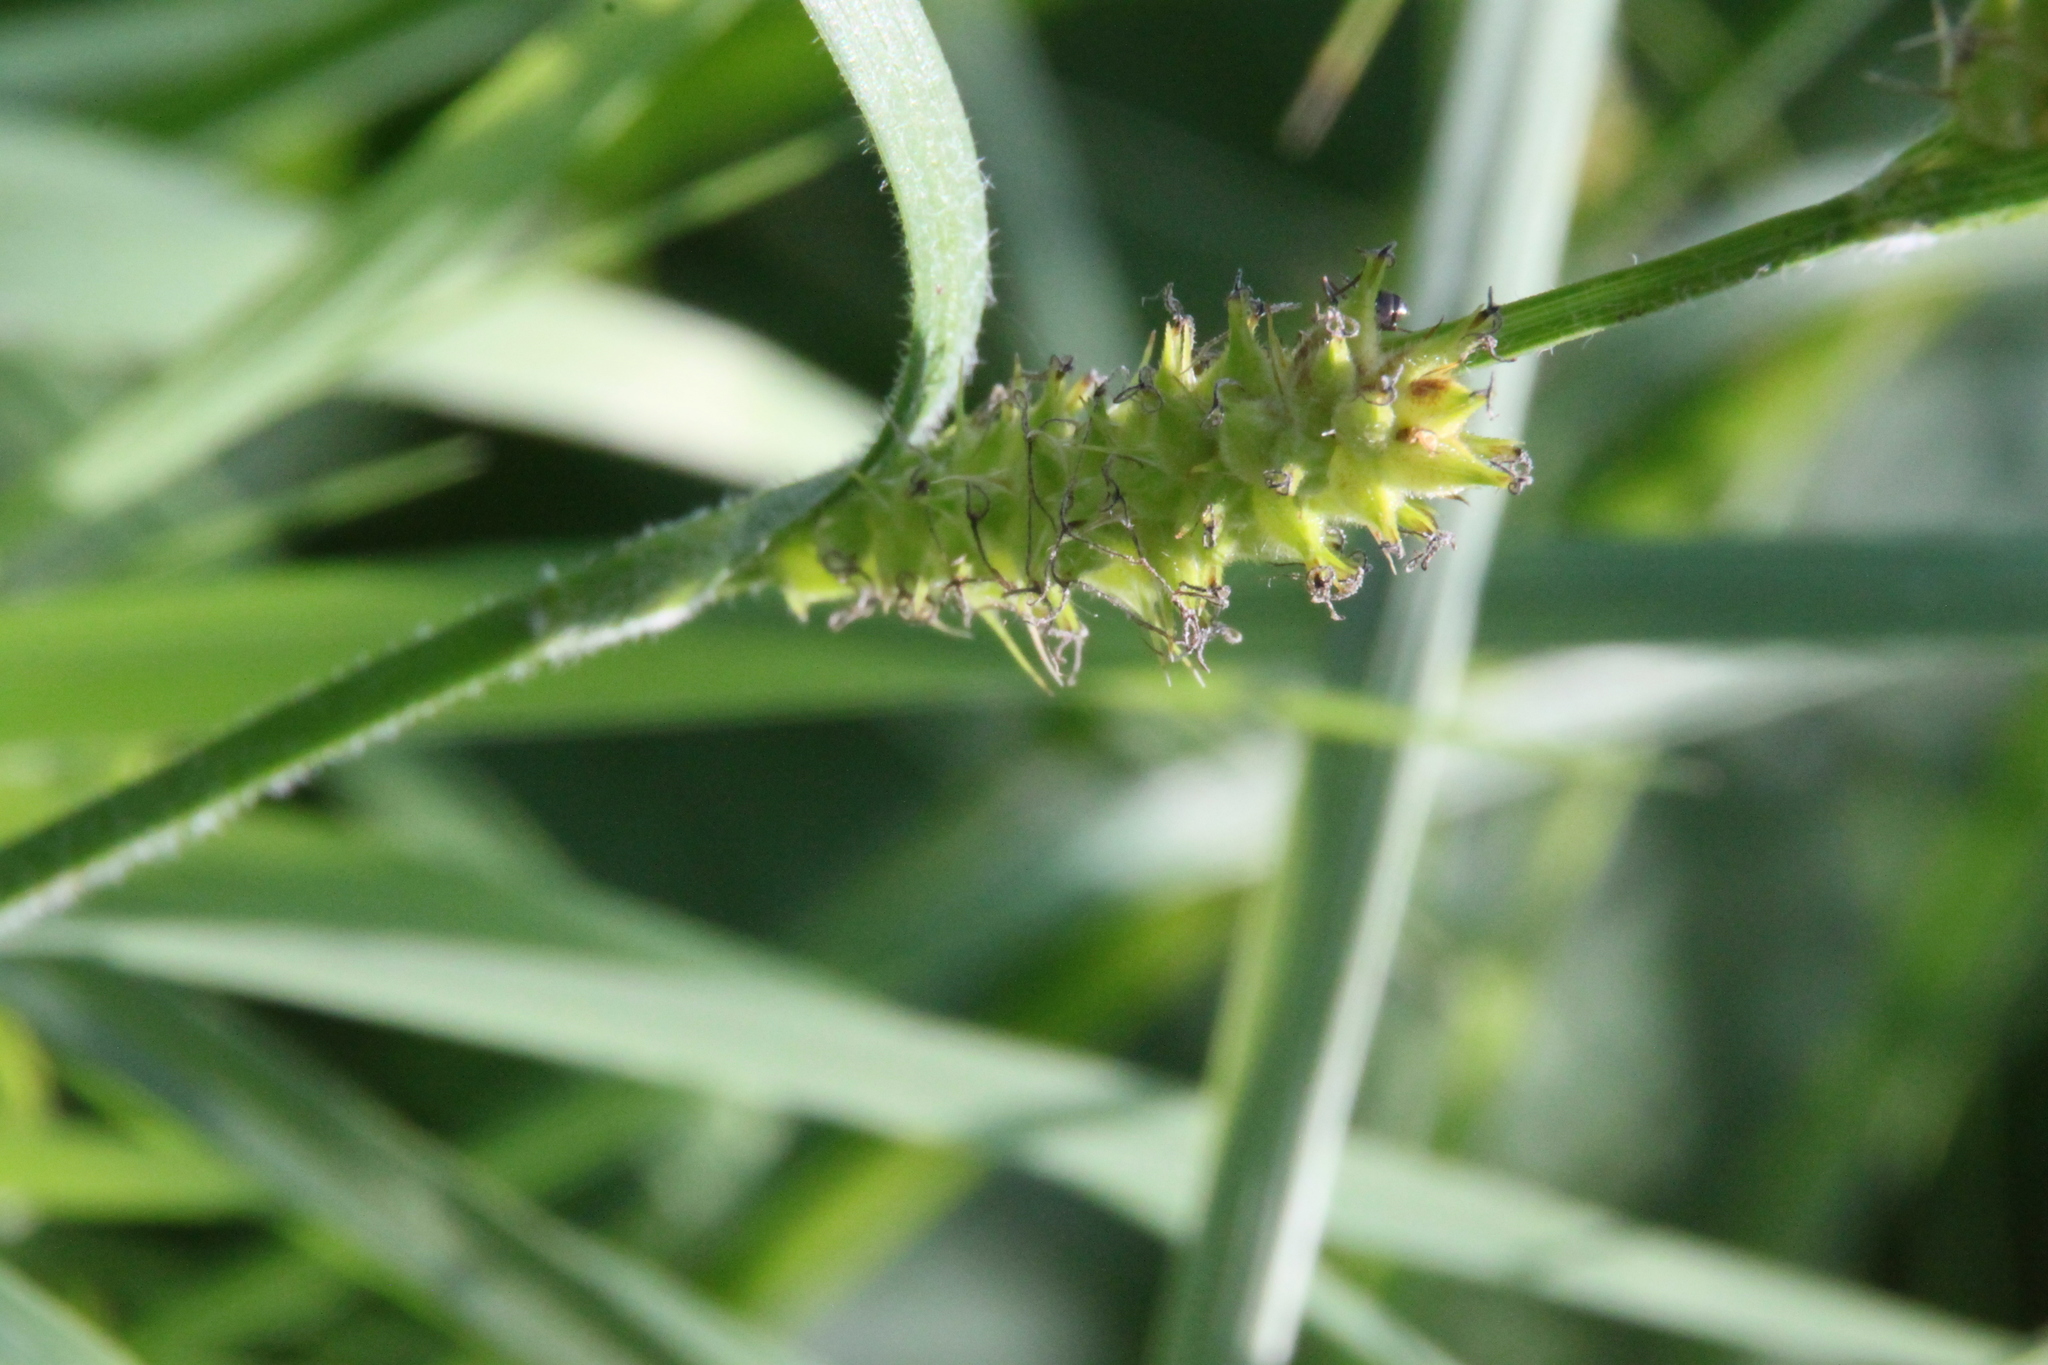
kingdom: Plantae
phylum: Tracheophyta
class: Liliopsida
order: Poales
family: Cyperaceae
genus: Carex
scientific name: Carex hirta
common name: Hairy sedge
